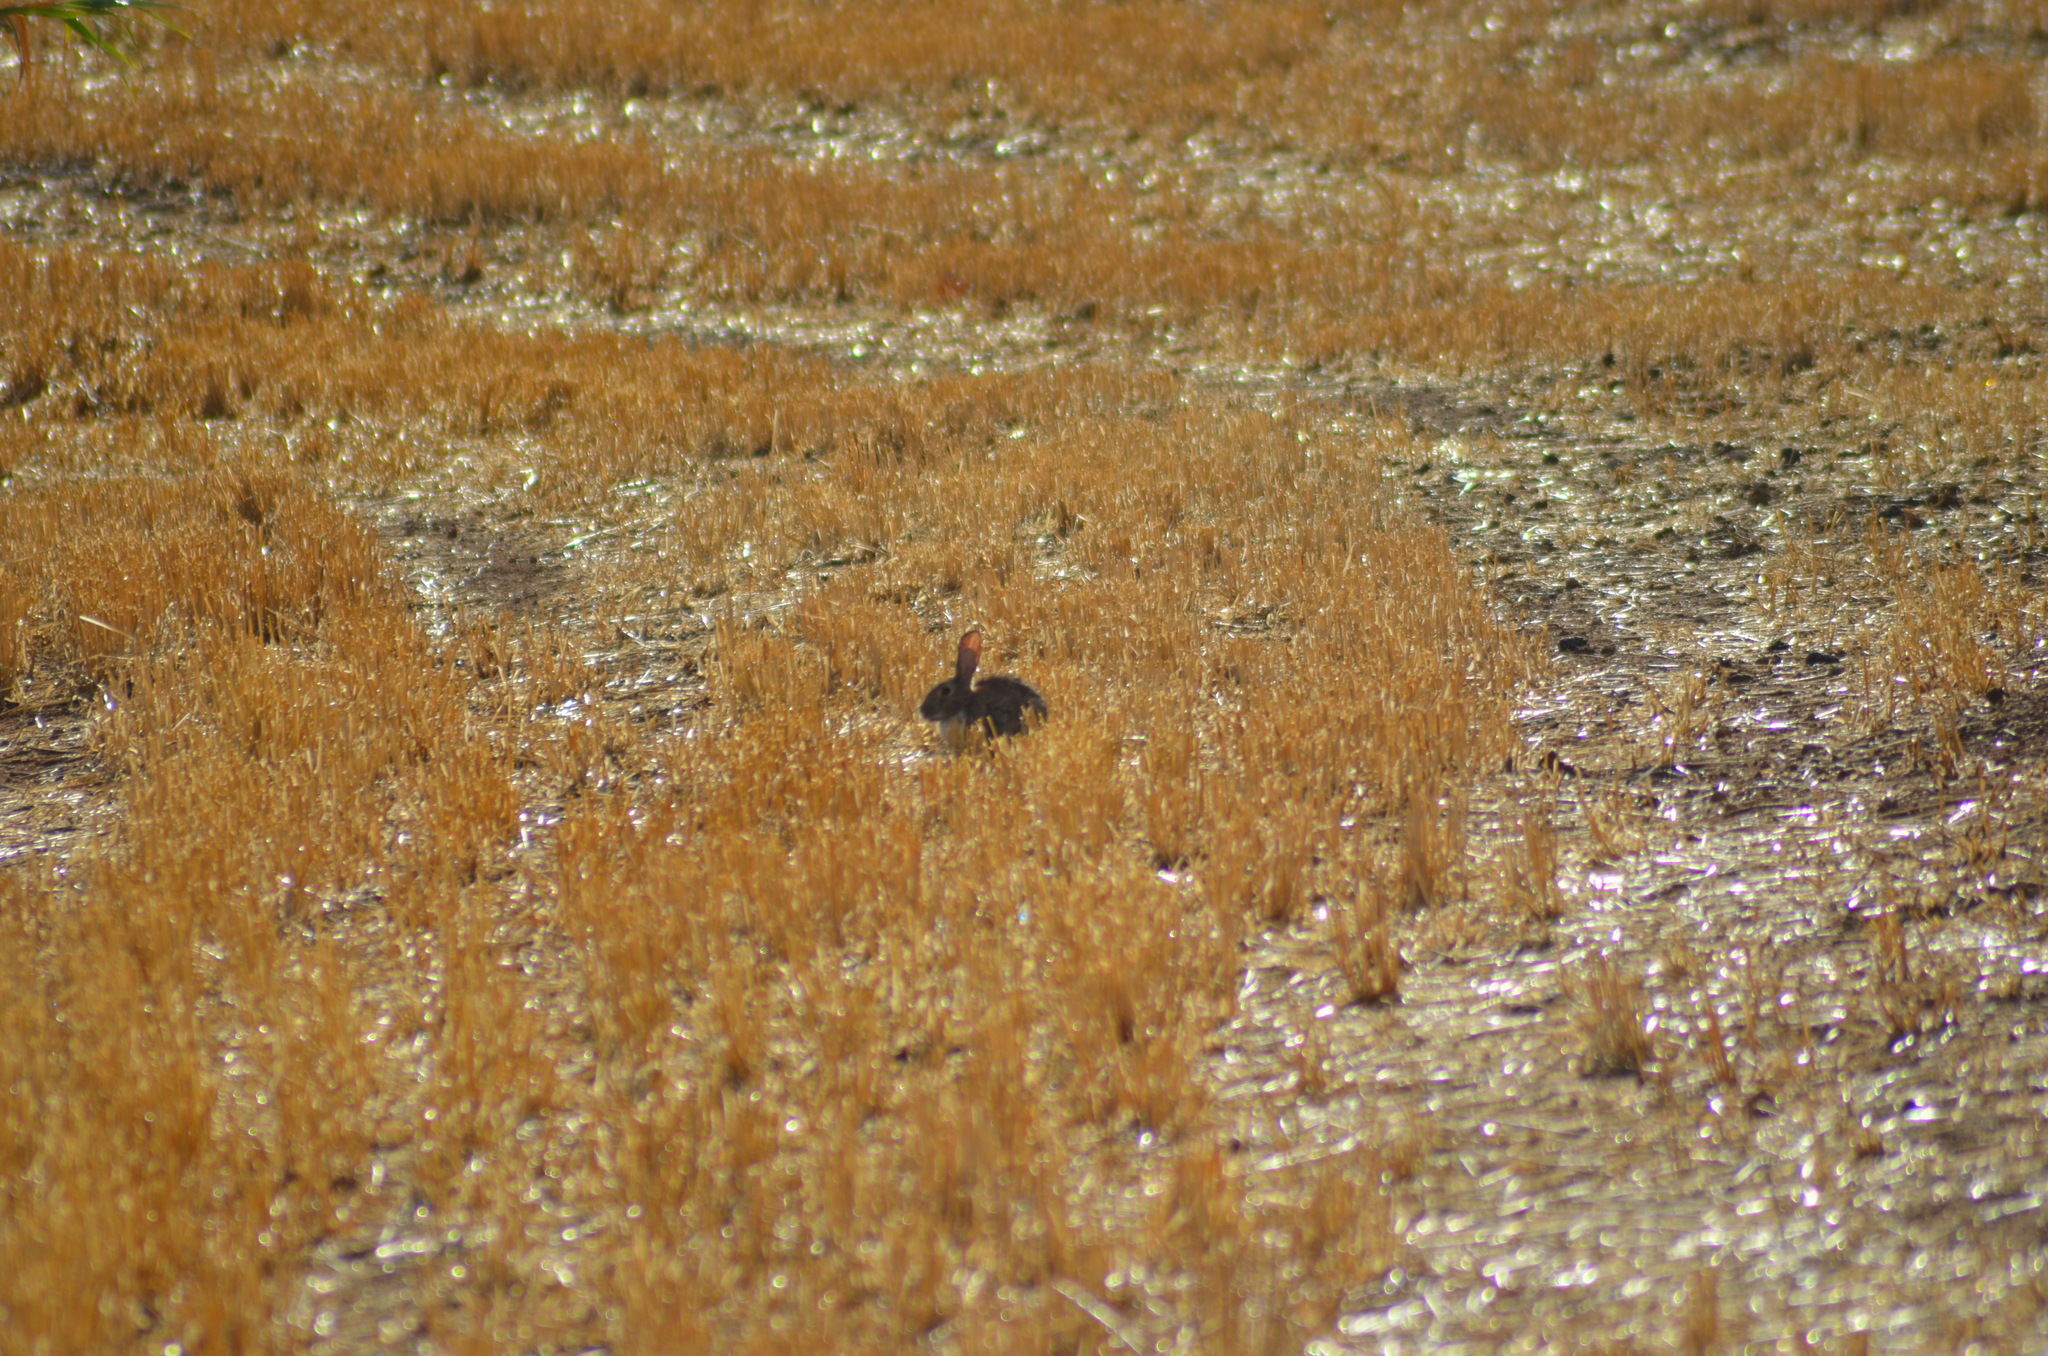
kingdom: Animalia
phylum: Chordata
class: Mammalia
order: Lagomorpha
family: Leporidae
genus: Oryctolagus
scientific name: Oryctolagus cuniculus
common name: European rabbit
